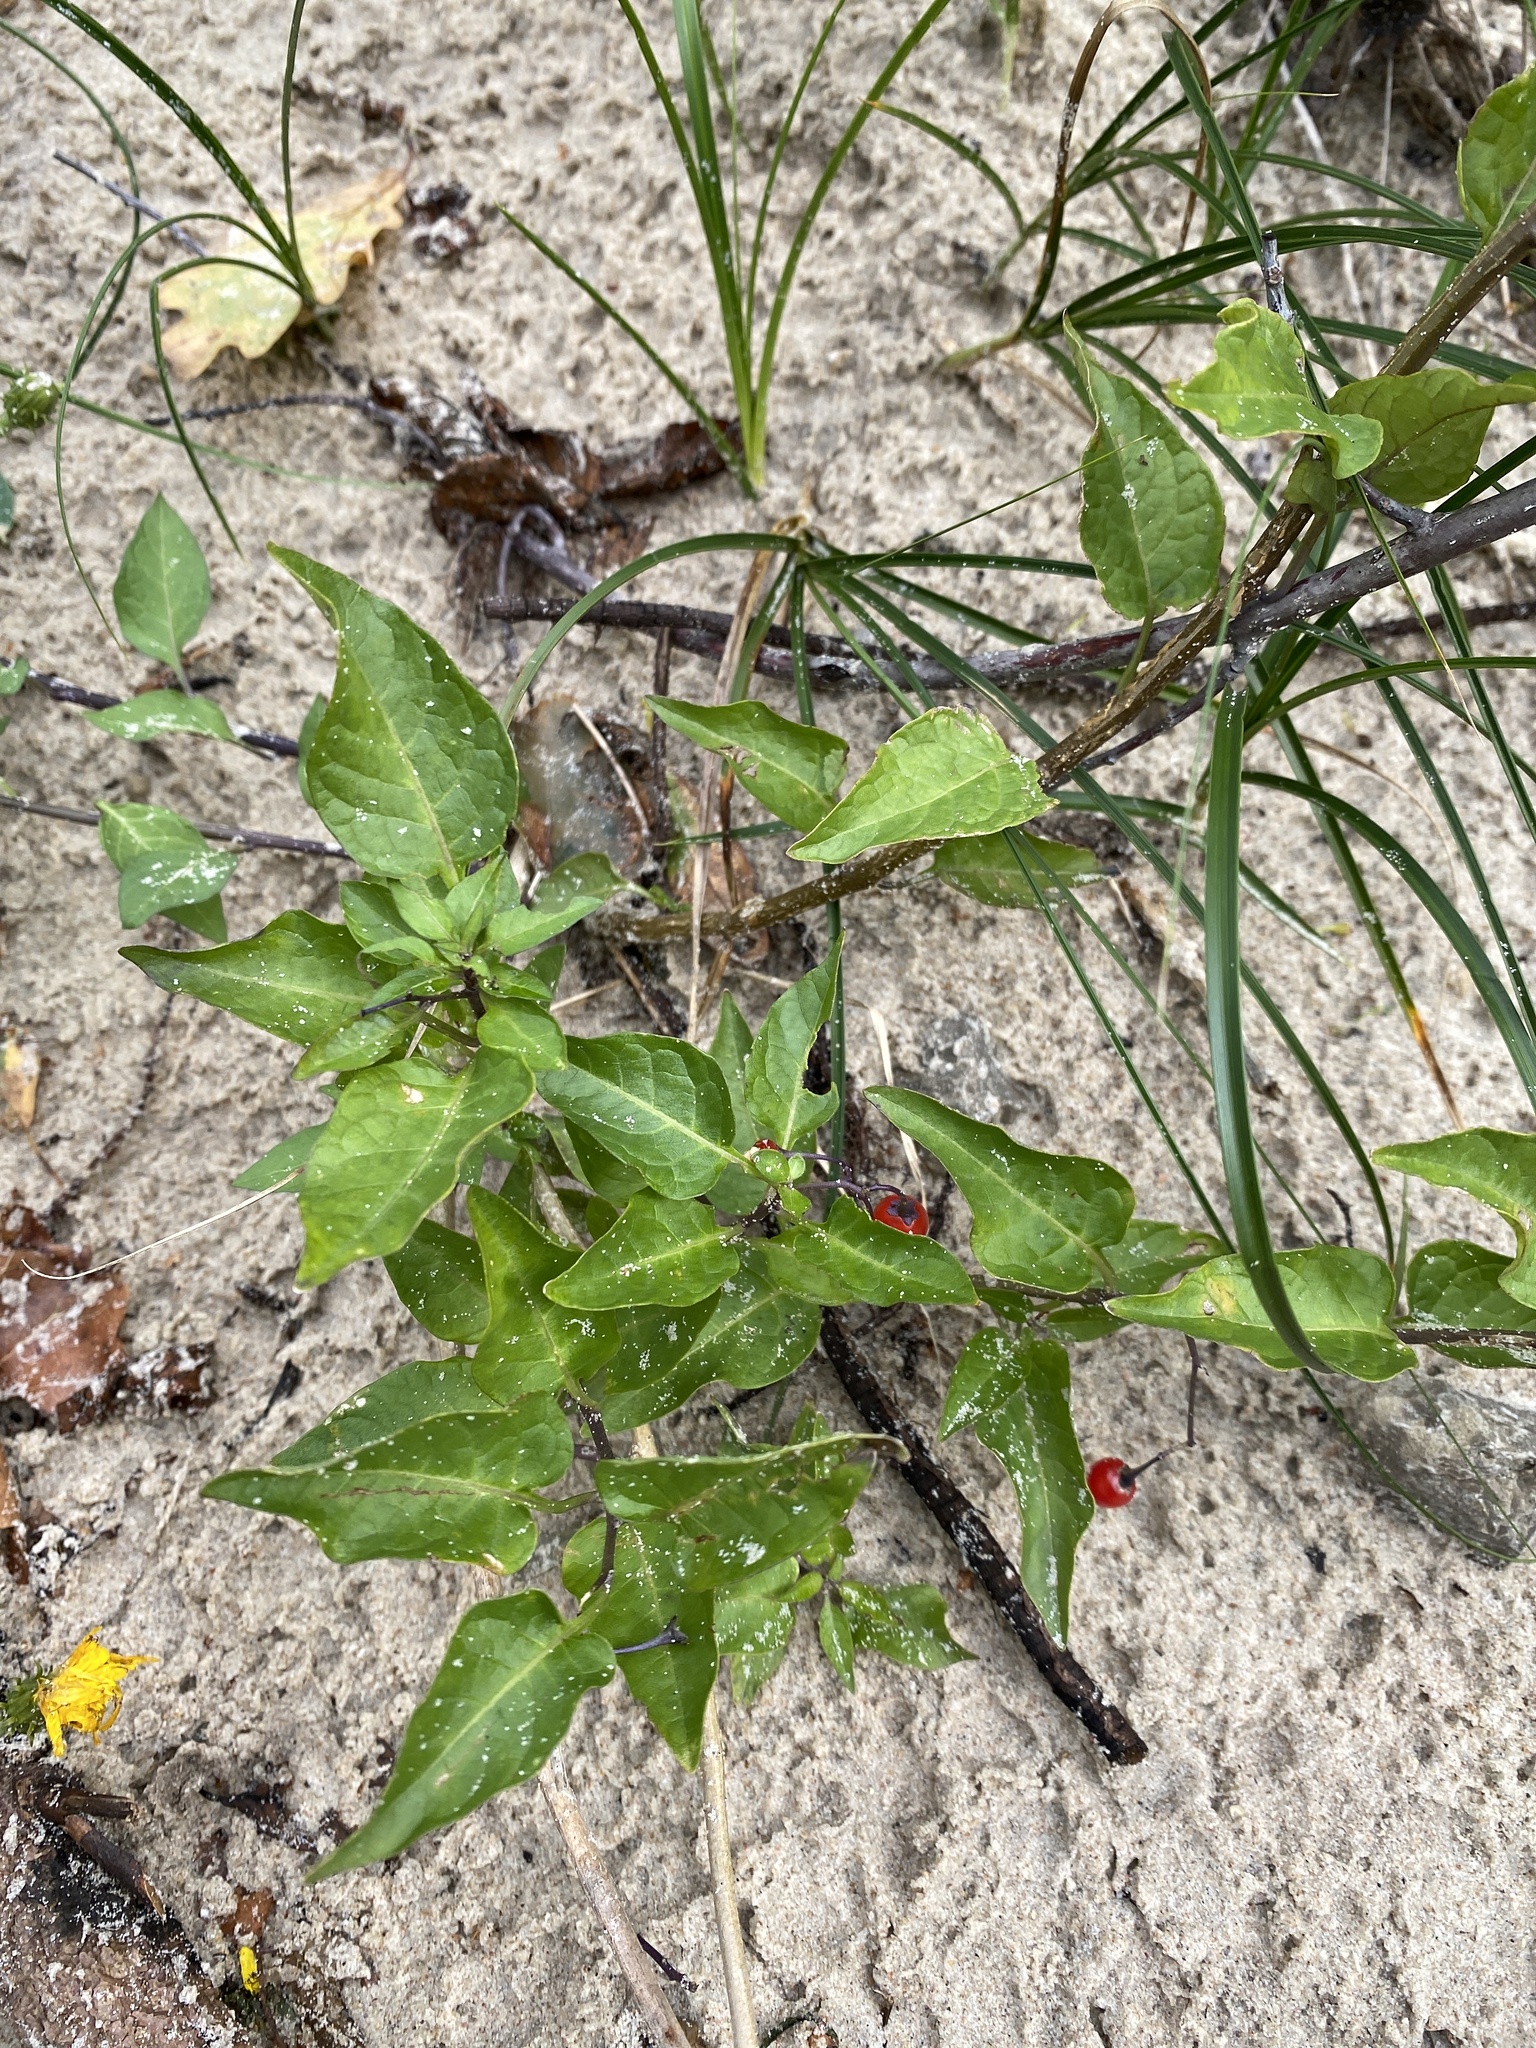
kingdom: Plantae
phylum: Tracheophyta
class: Magnoliopsida
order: Solanales
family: Solanaceae
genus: Solanum
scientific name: Solanum dulcamara
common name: Climbing nightshade
